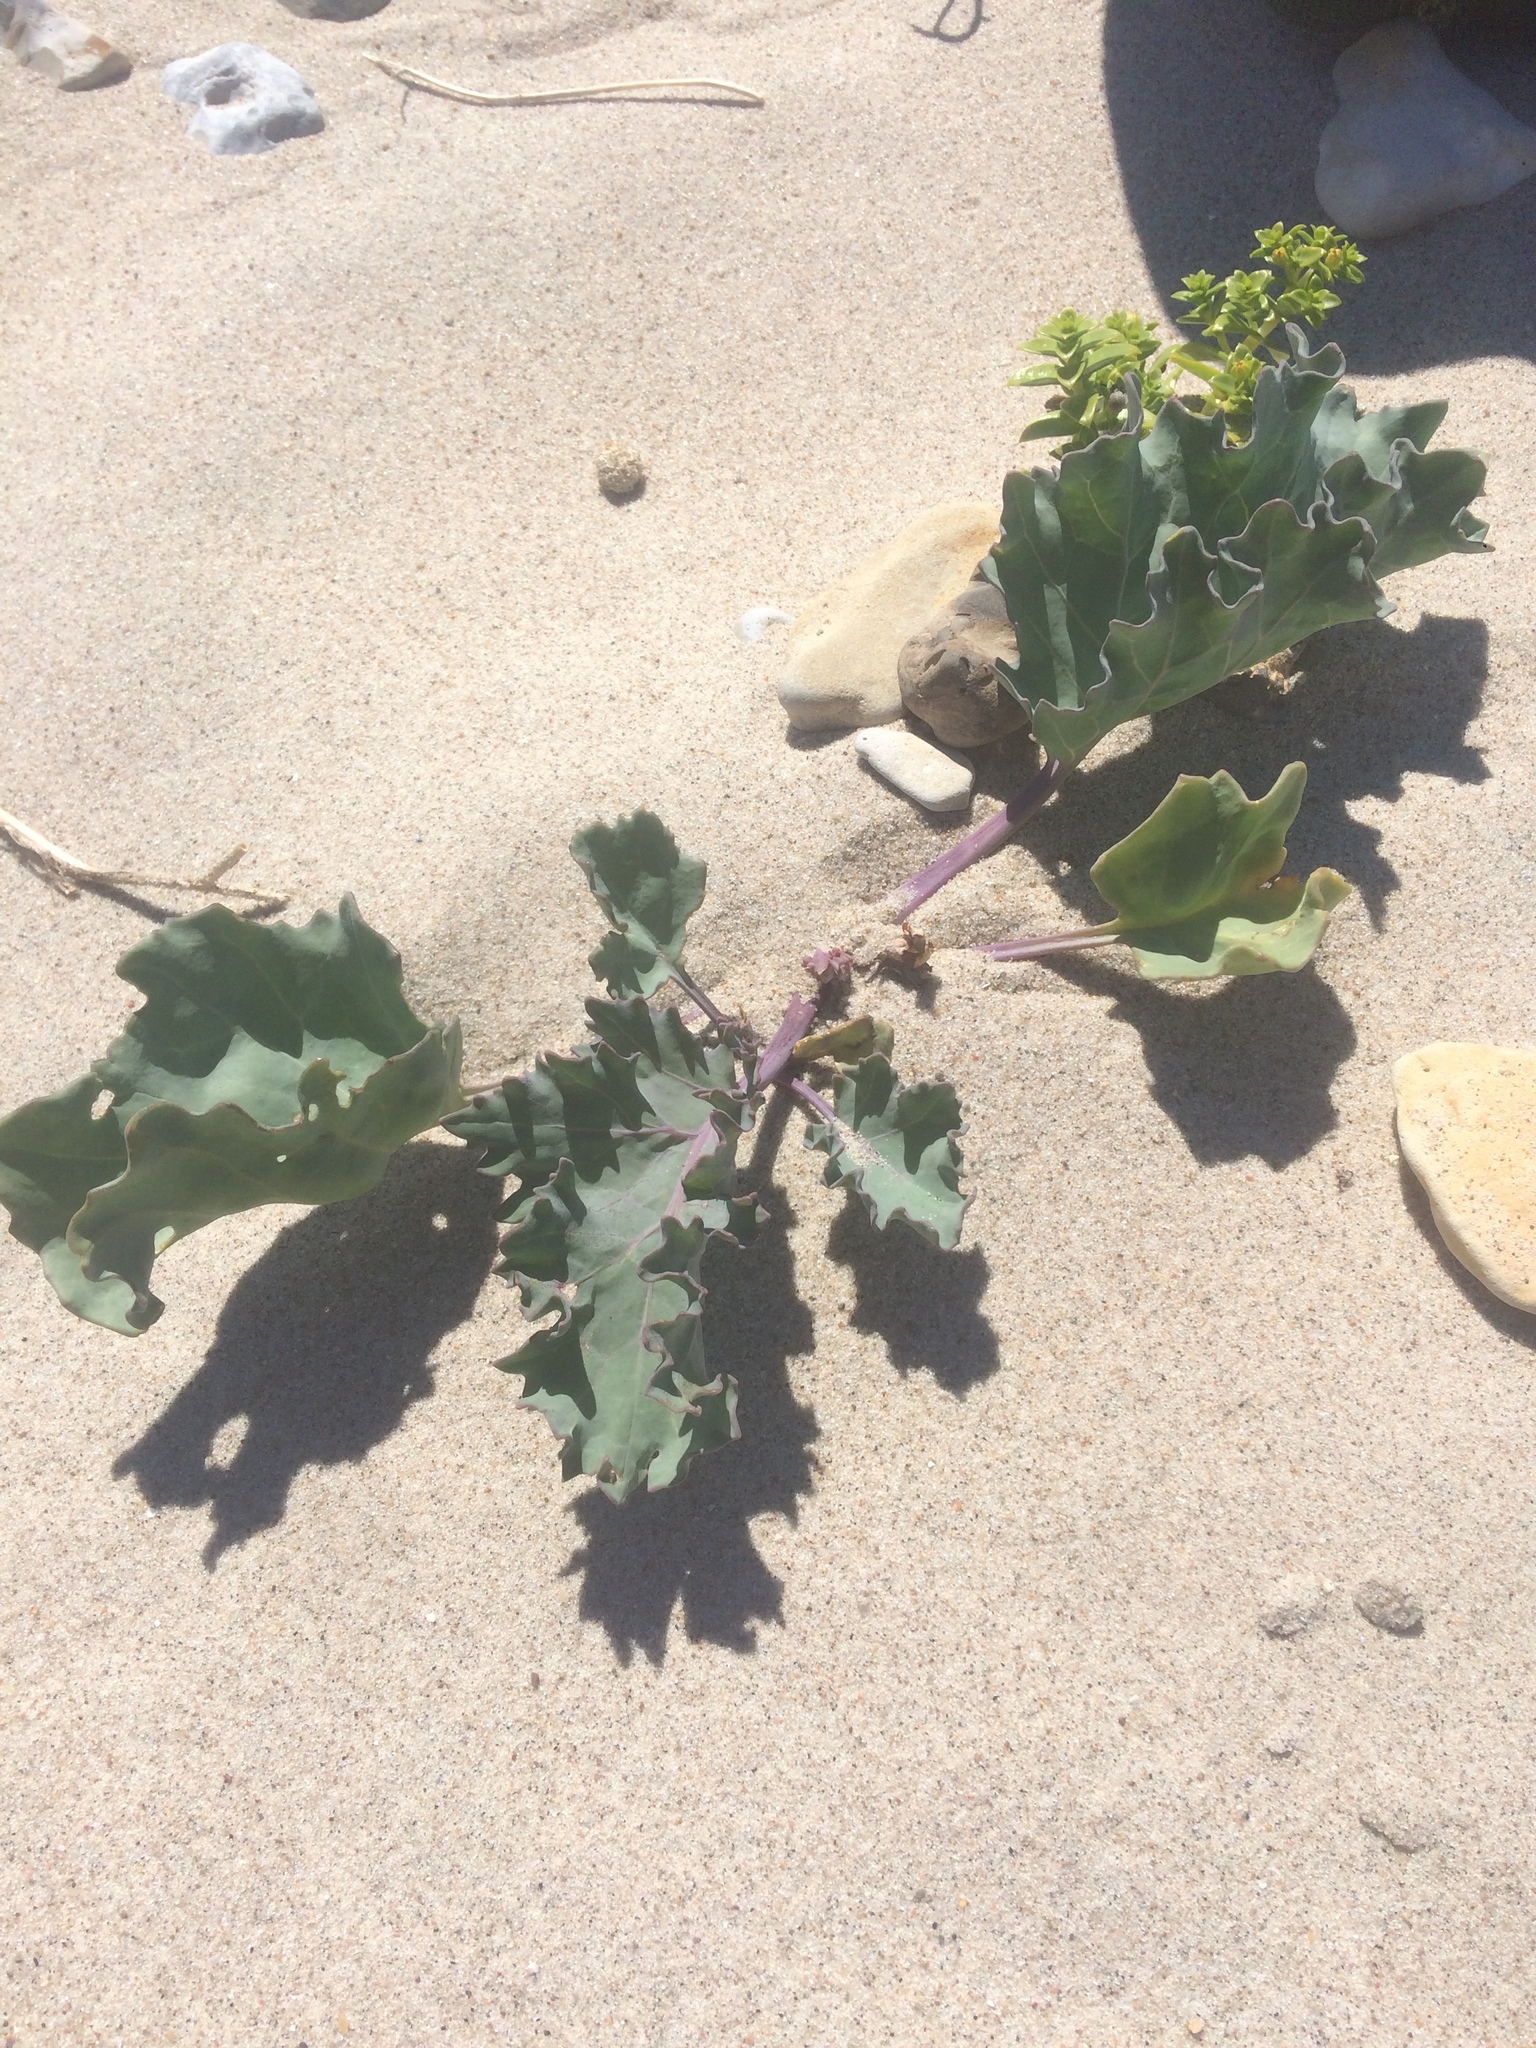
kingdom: Plantae
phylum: Tracheophyta
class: Magnoliopsida
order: Brassicales
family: Brassicaceae
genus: Crambe
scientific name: Crambe maritima
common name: Sea-kale
